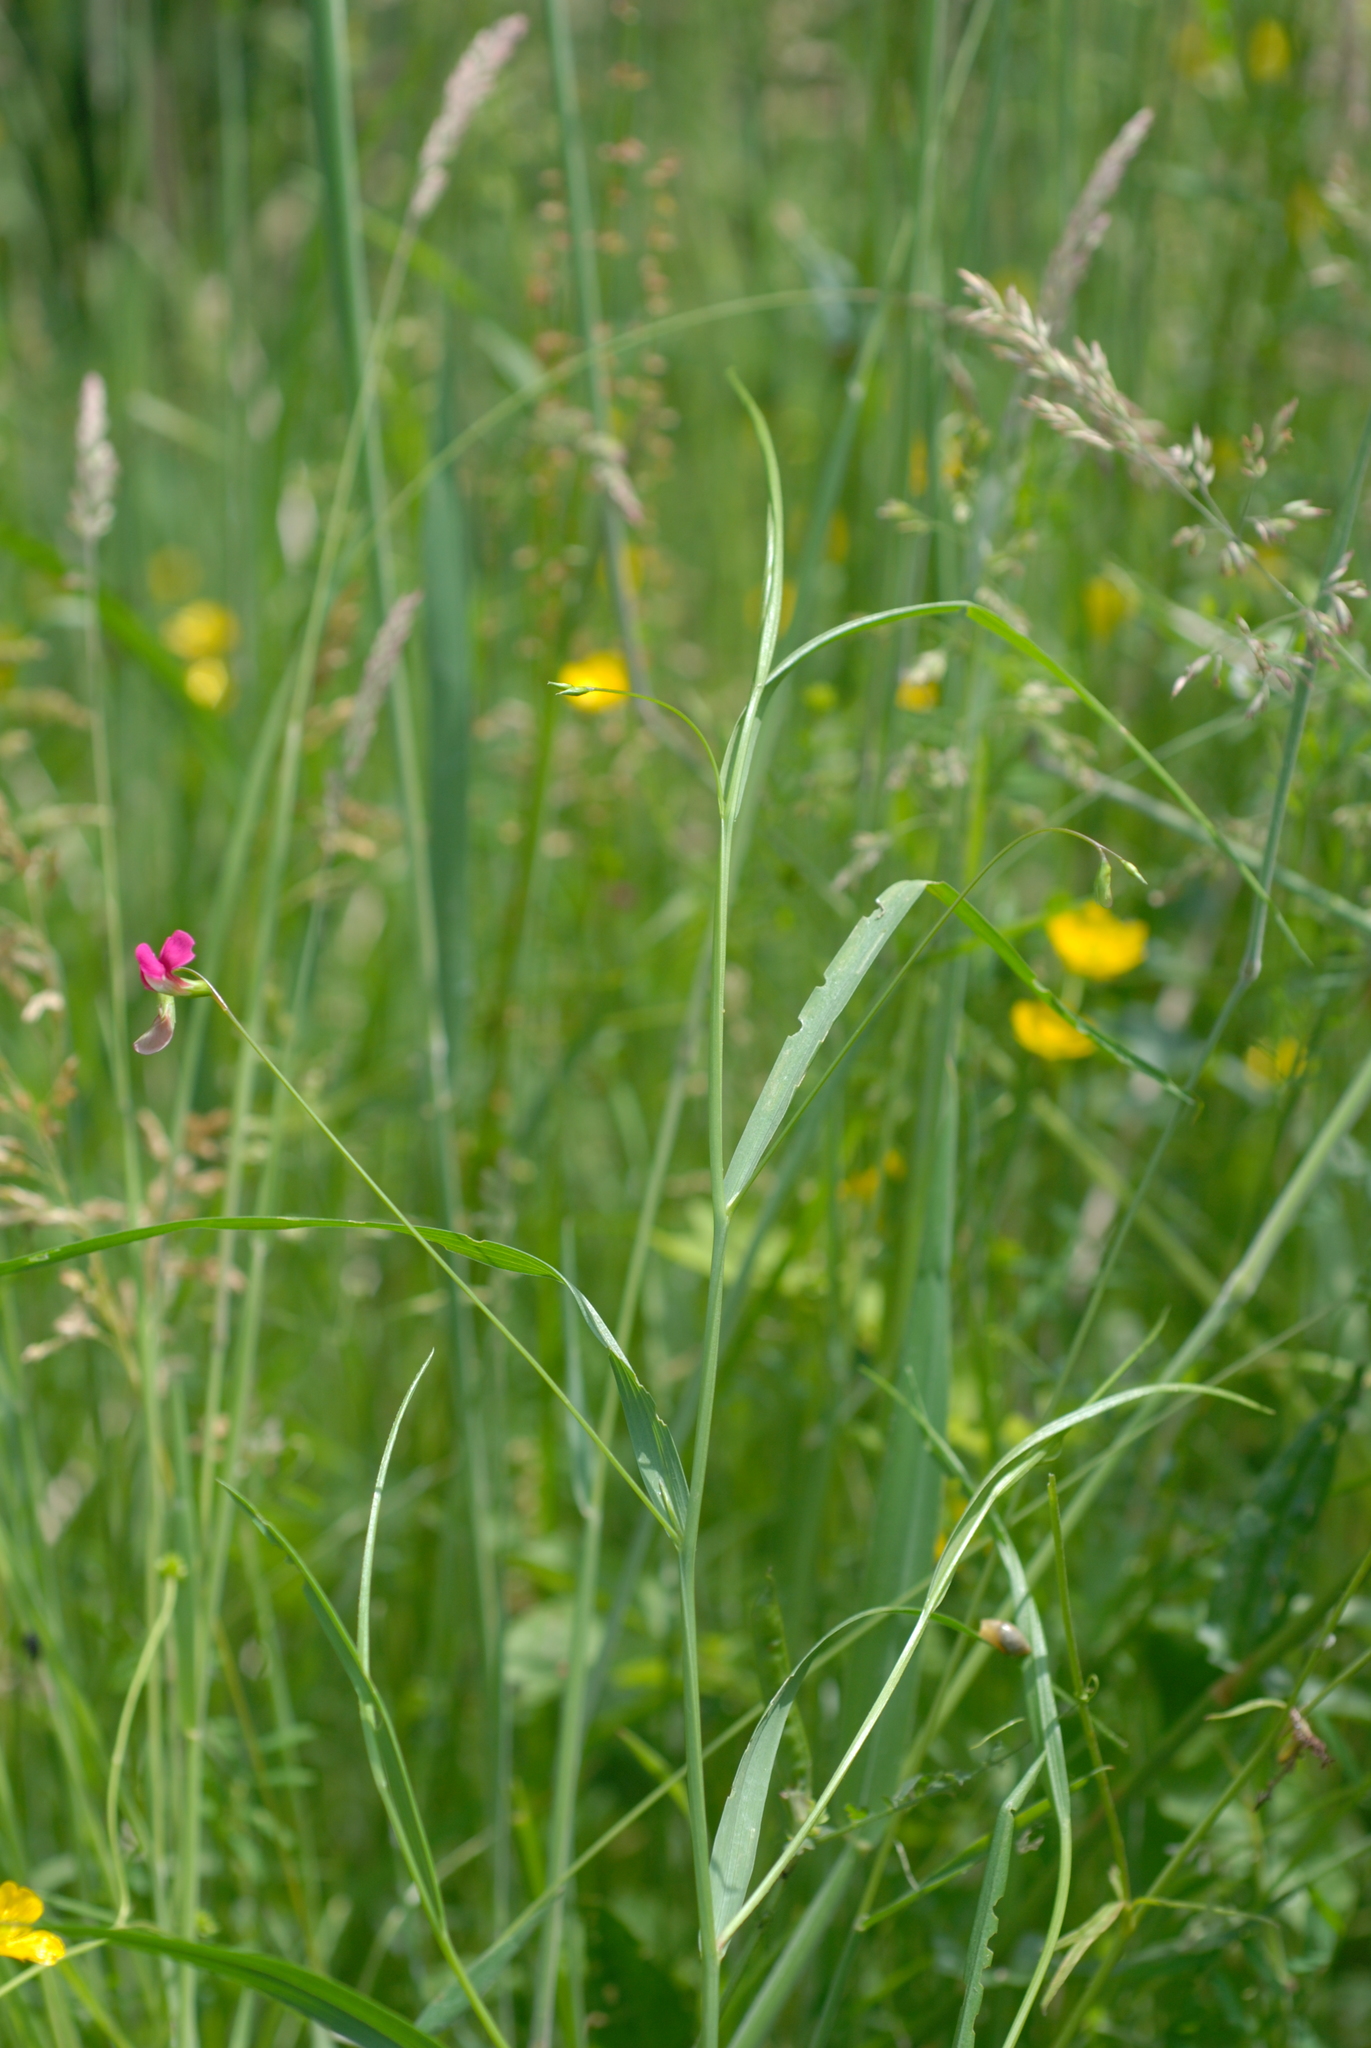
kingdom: Plantae
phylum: Tracheophyta
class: Magnoliopsida
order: Fabales
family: Fabaceae
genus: Lathyrus
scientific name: Lathyrus nissolia
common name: Grass vetchling
